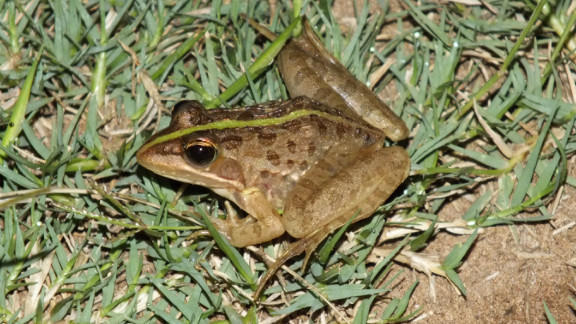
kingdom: Animalia
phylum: Chordata
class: Amphibia
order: Anura
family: Pyxicephalidae
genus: Amietia
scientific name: Amietia delalandii
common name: Delalande's river frog
